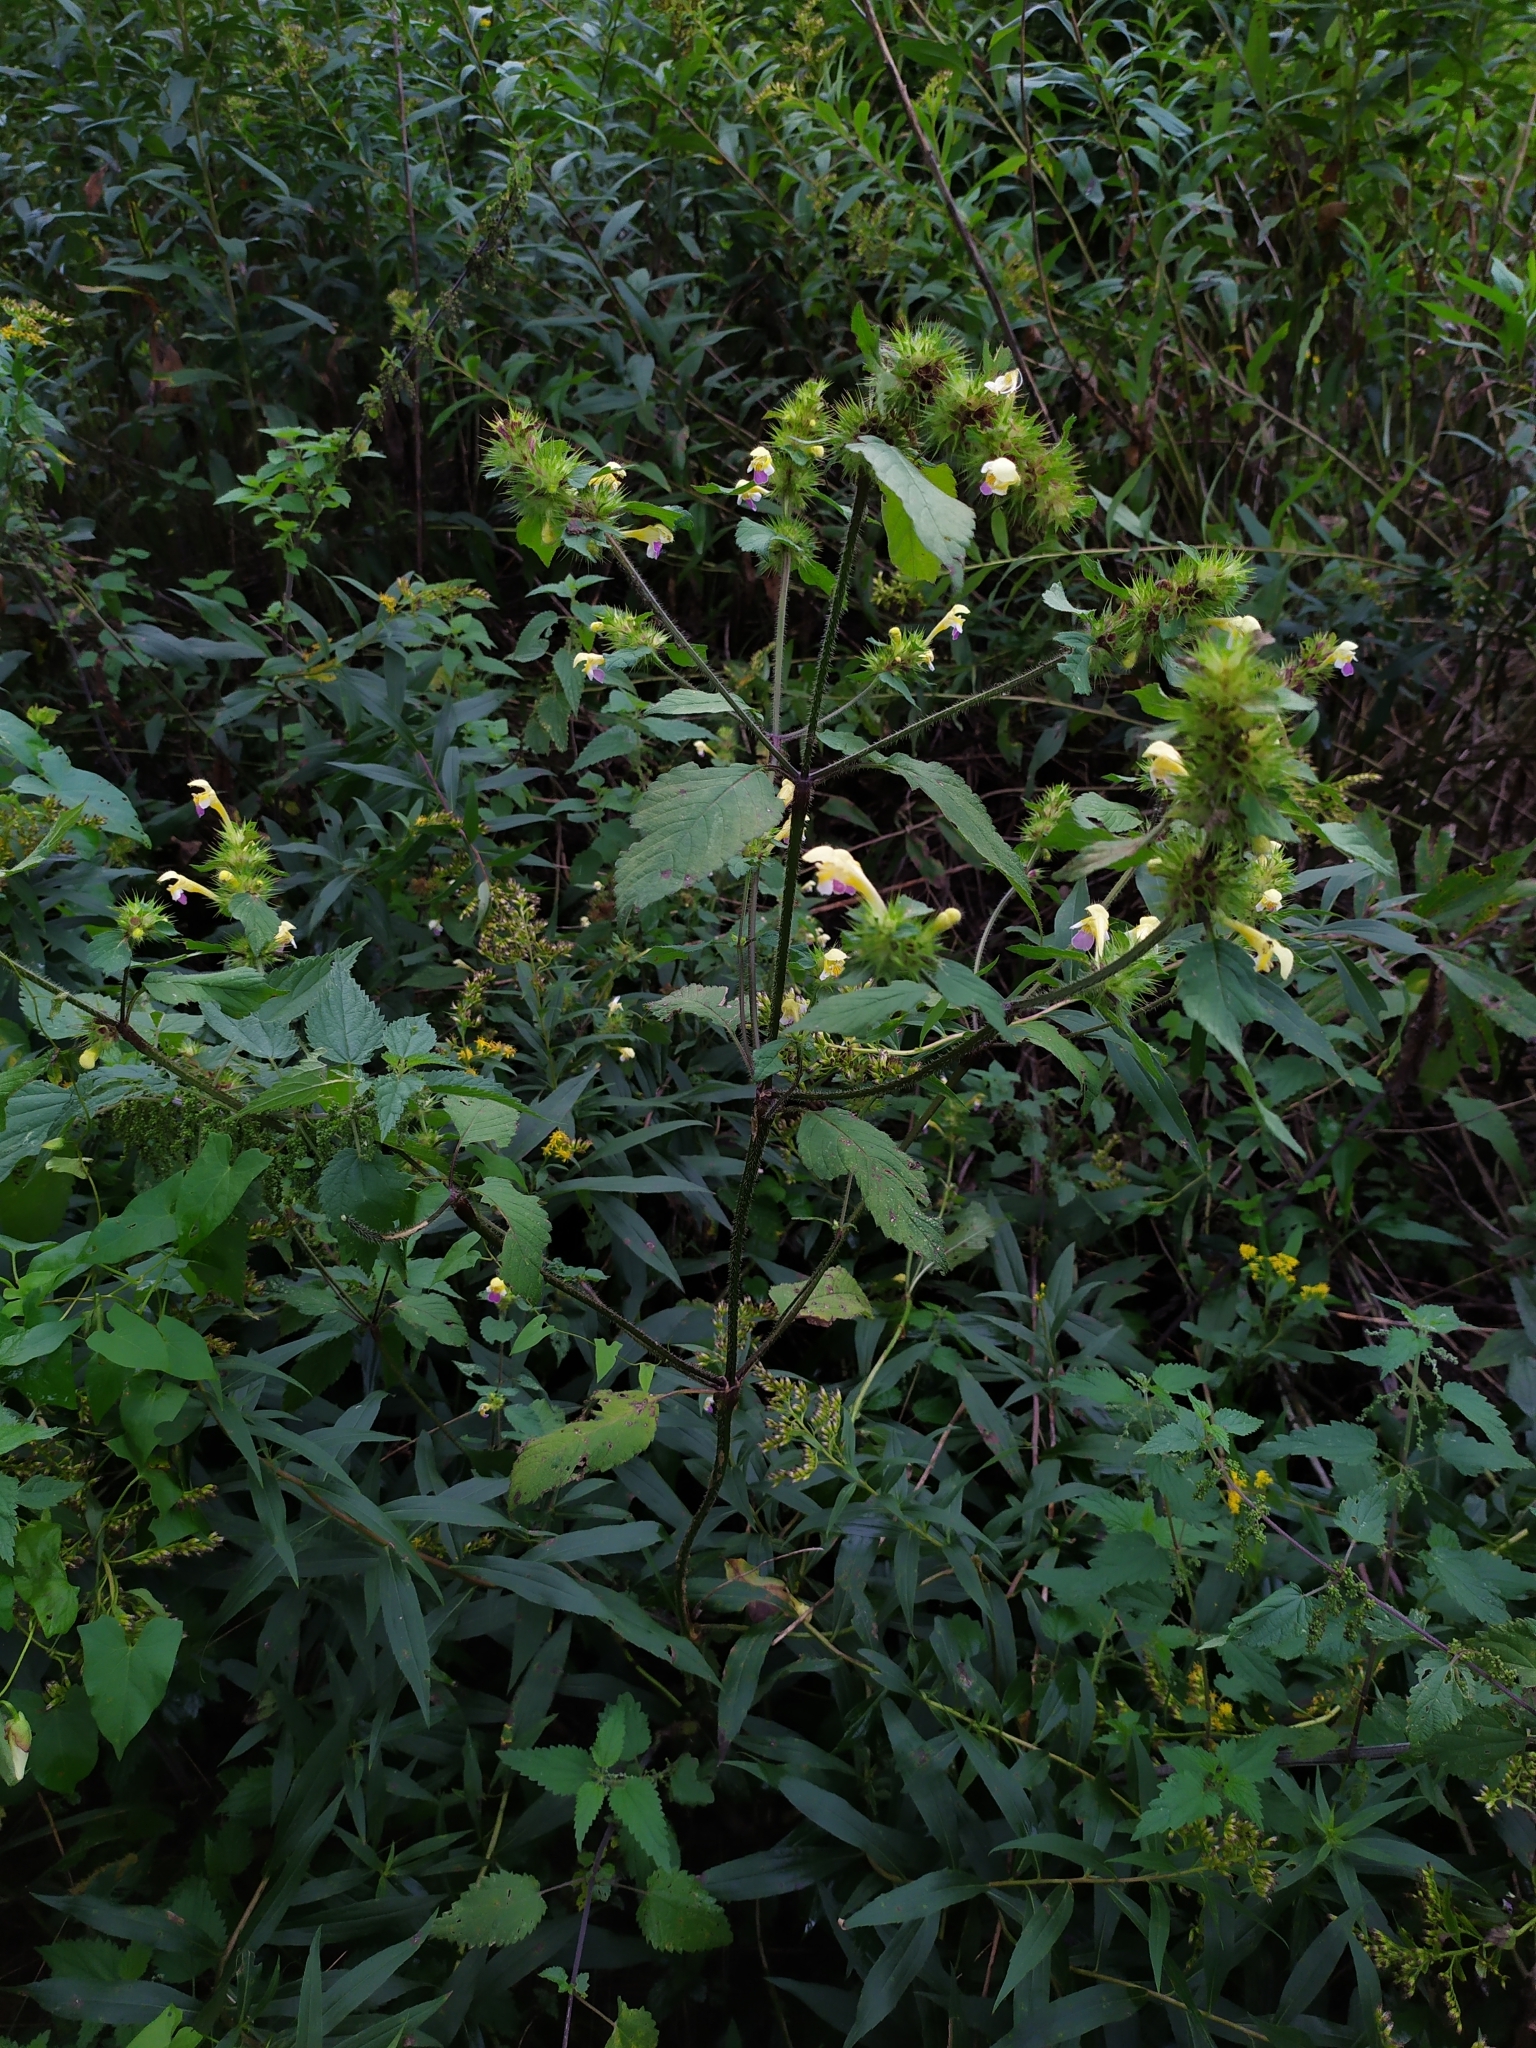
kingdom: Plantae
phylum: Tracheophyta
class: Magnoliopsida
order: Lamiales
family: Lamiaceae
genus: Galeopsis
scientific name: Galeopsis speciosa
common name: Large-flowered hemp-nettle
